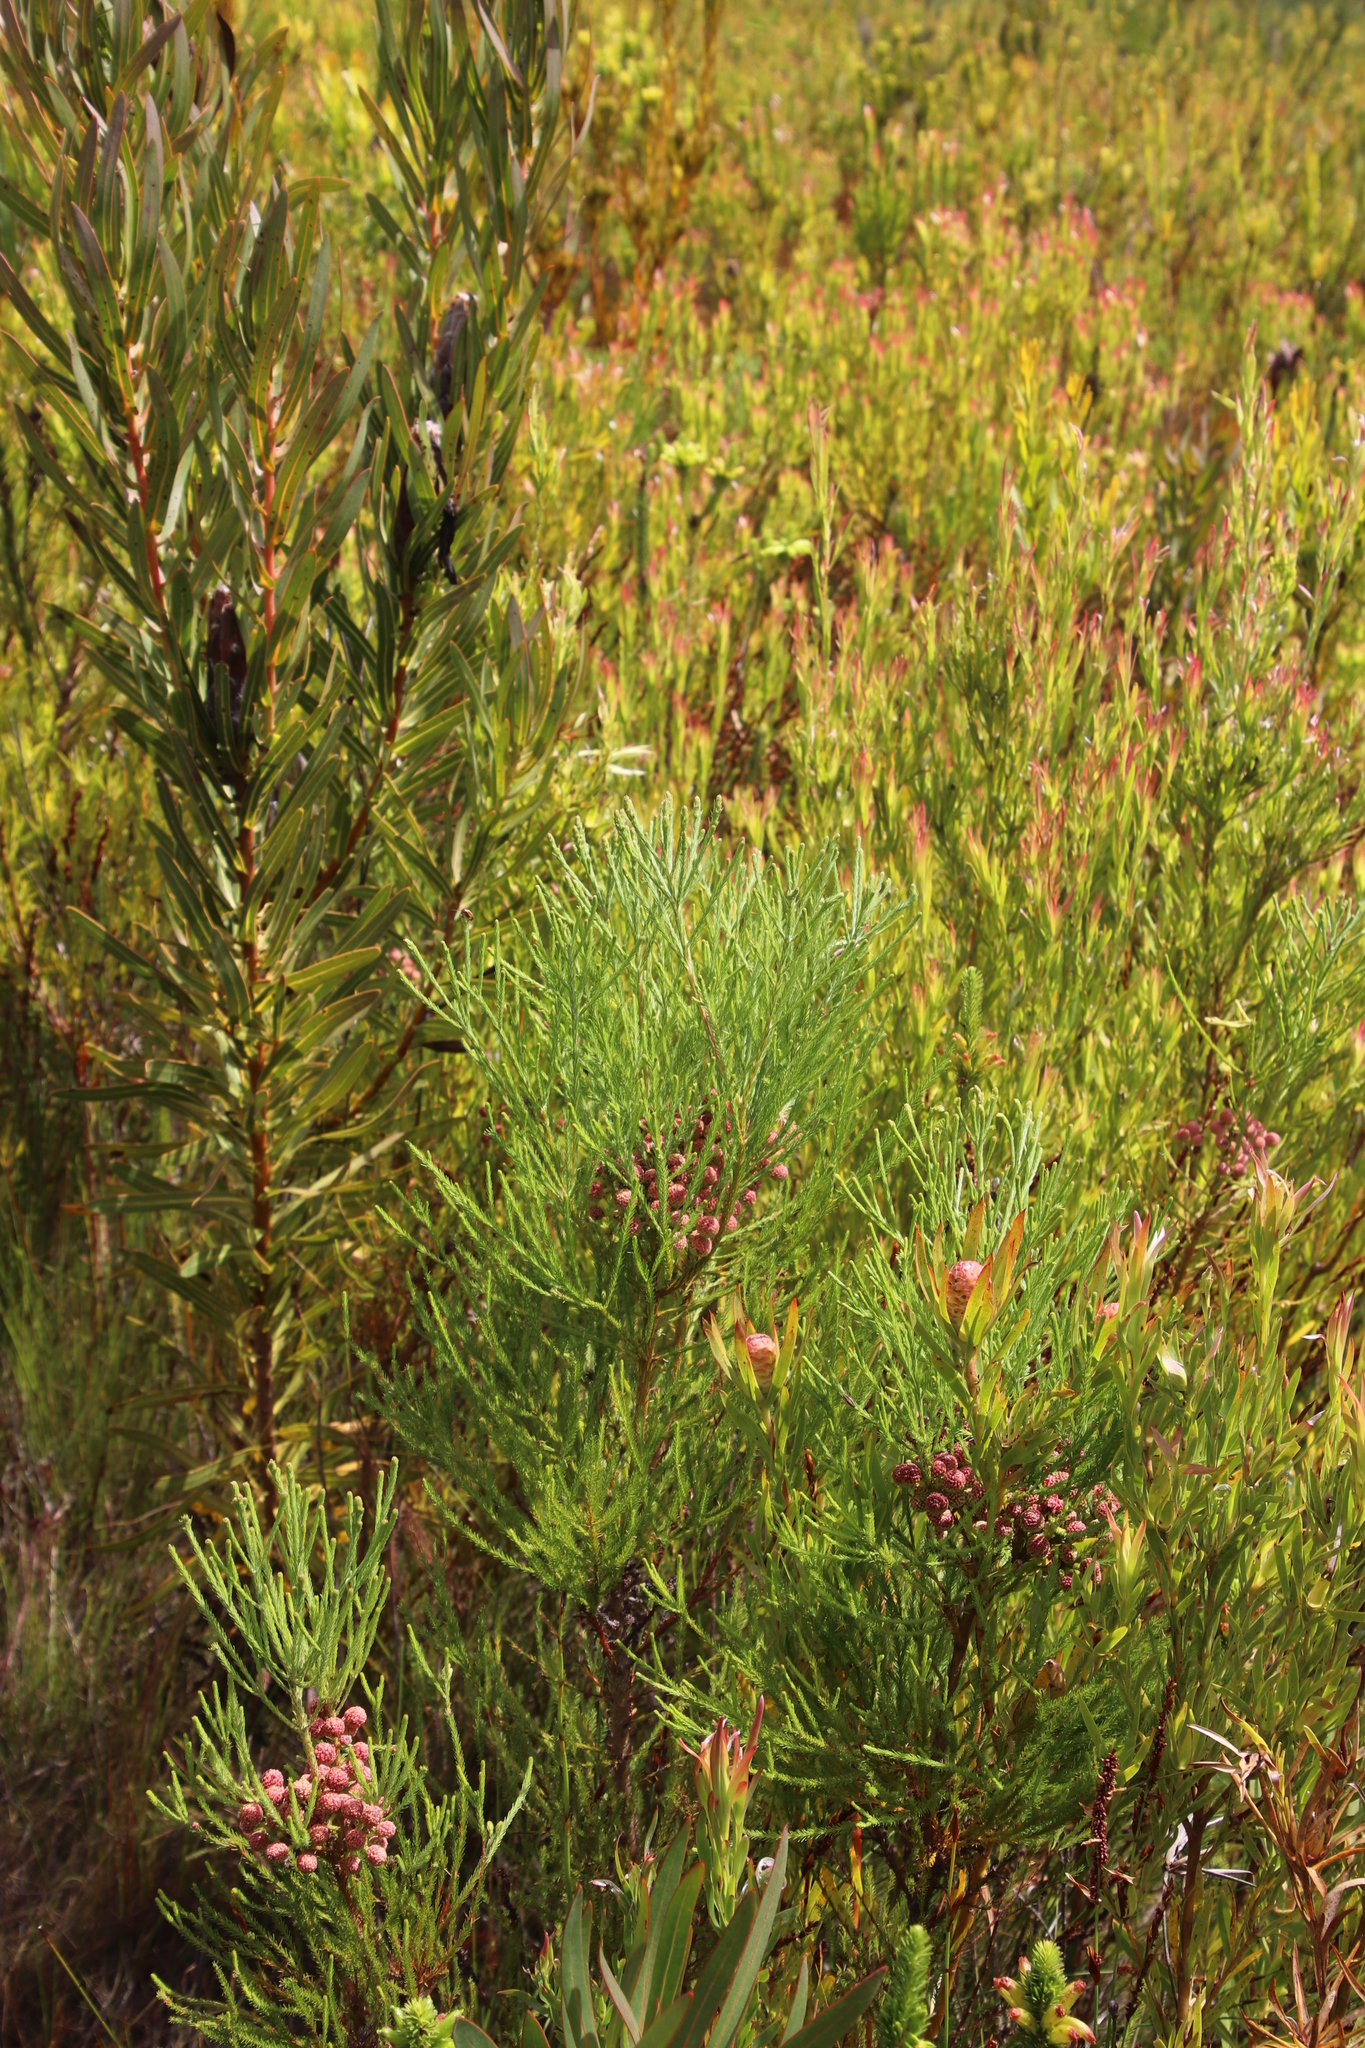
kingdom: Plantae
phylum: Tracheophyta
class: Magnoliopsida
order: Bruniales
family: Bruniaceae
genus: Berzelia
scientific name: Berzelia lanuginosa
